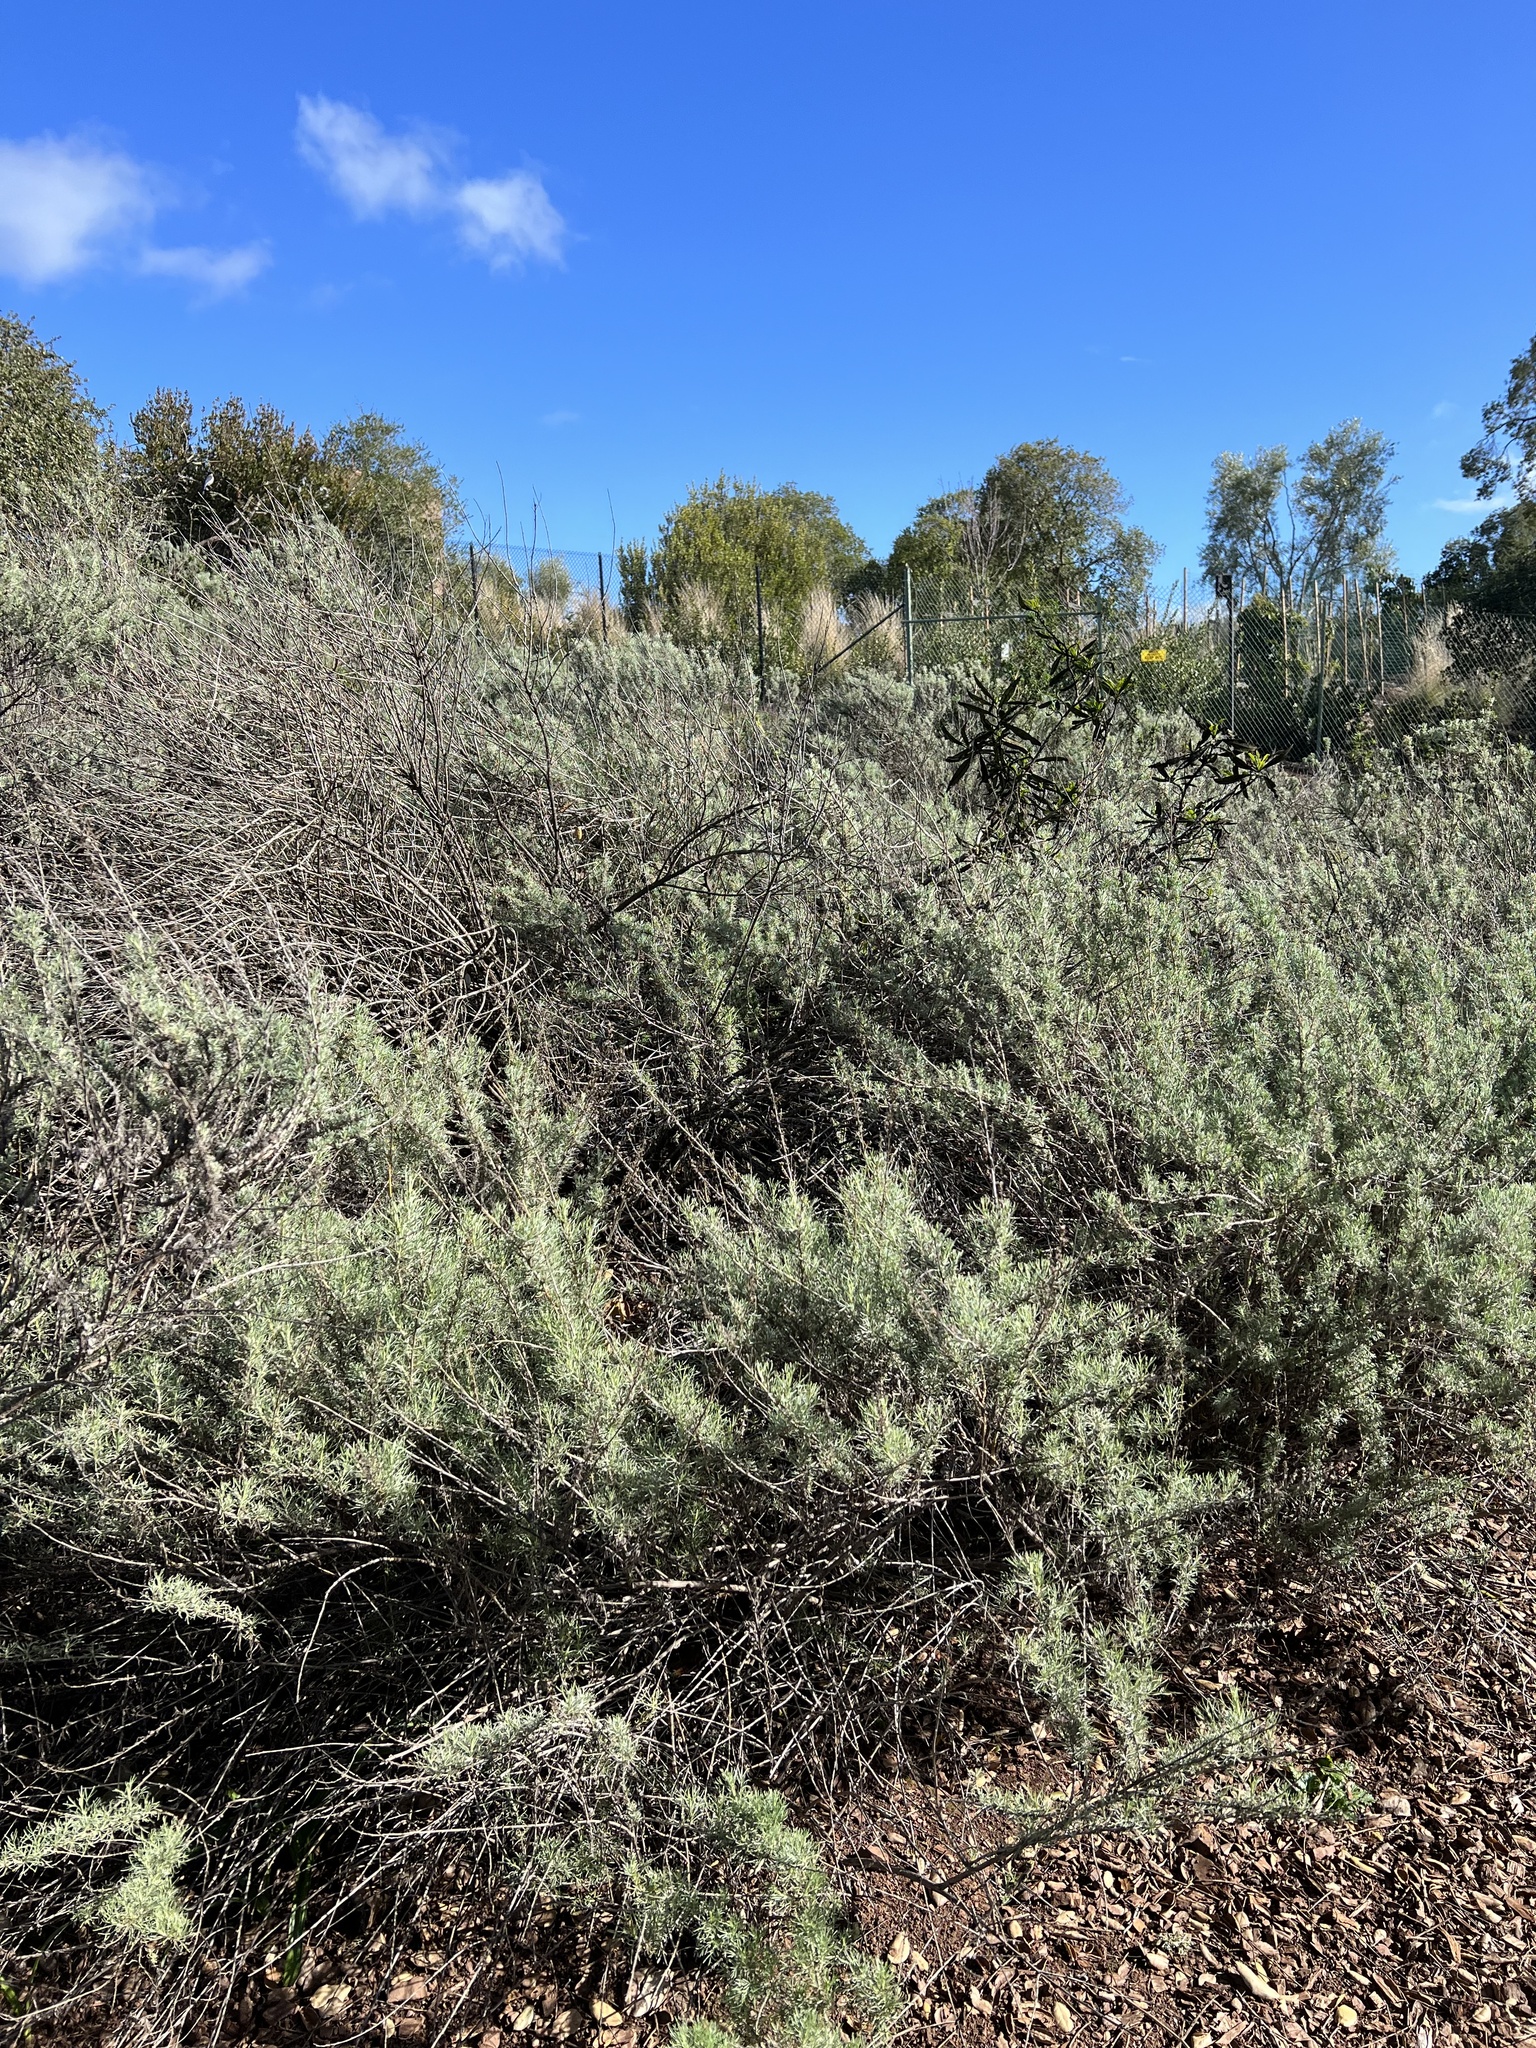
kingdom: Plantae
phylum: Tracheophyta
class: Magnoliopsida
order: Asterales
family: Asteraceae
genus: Artemisia
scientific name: Artemisia californica
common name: California sagebrush
